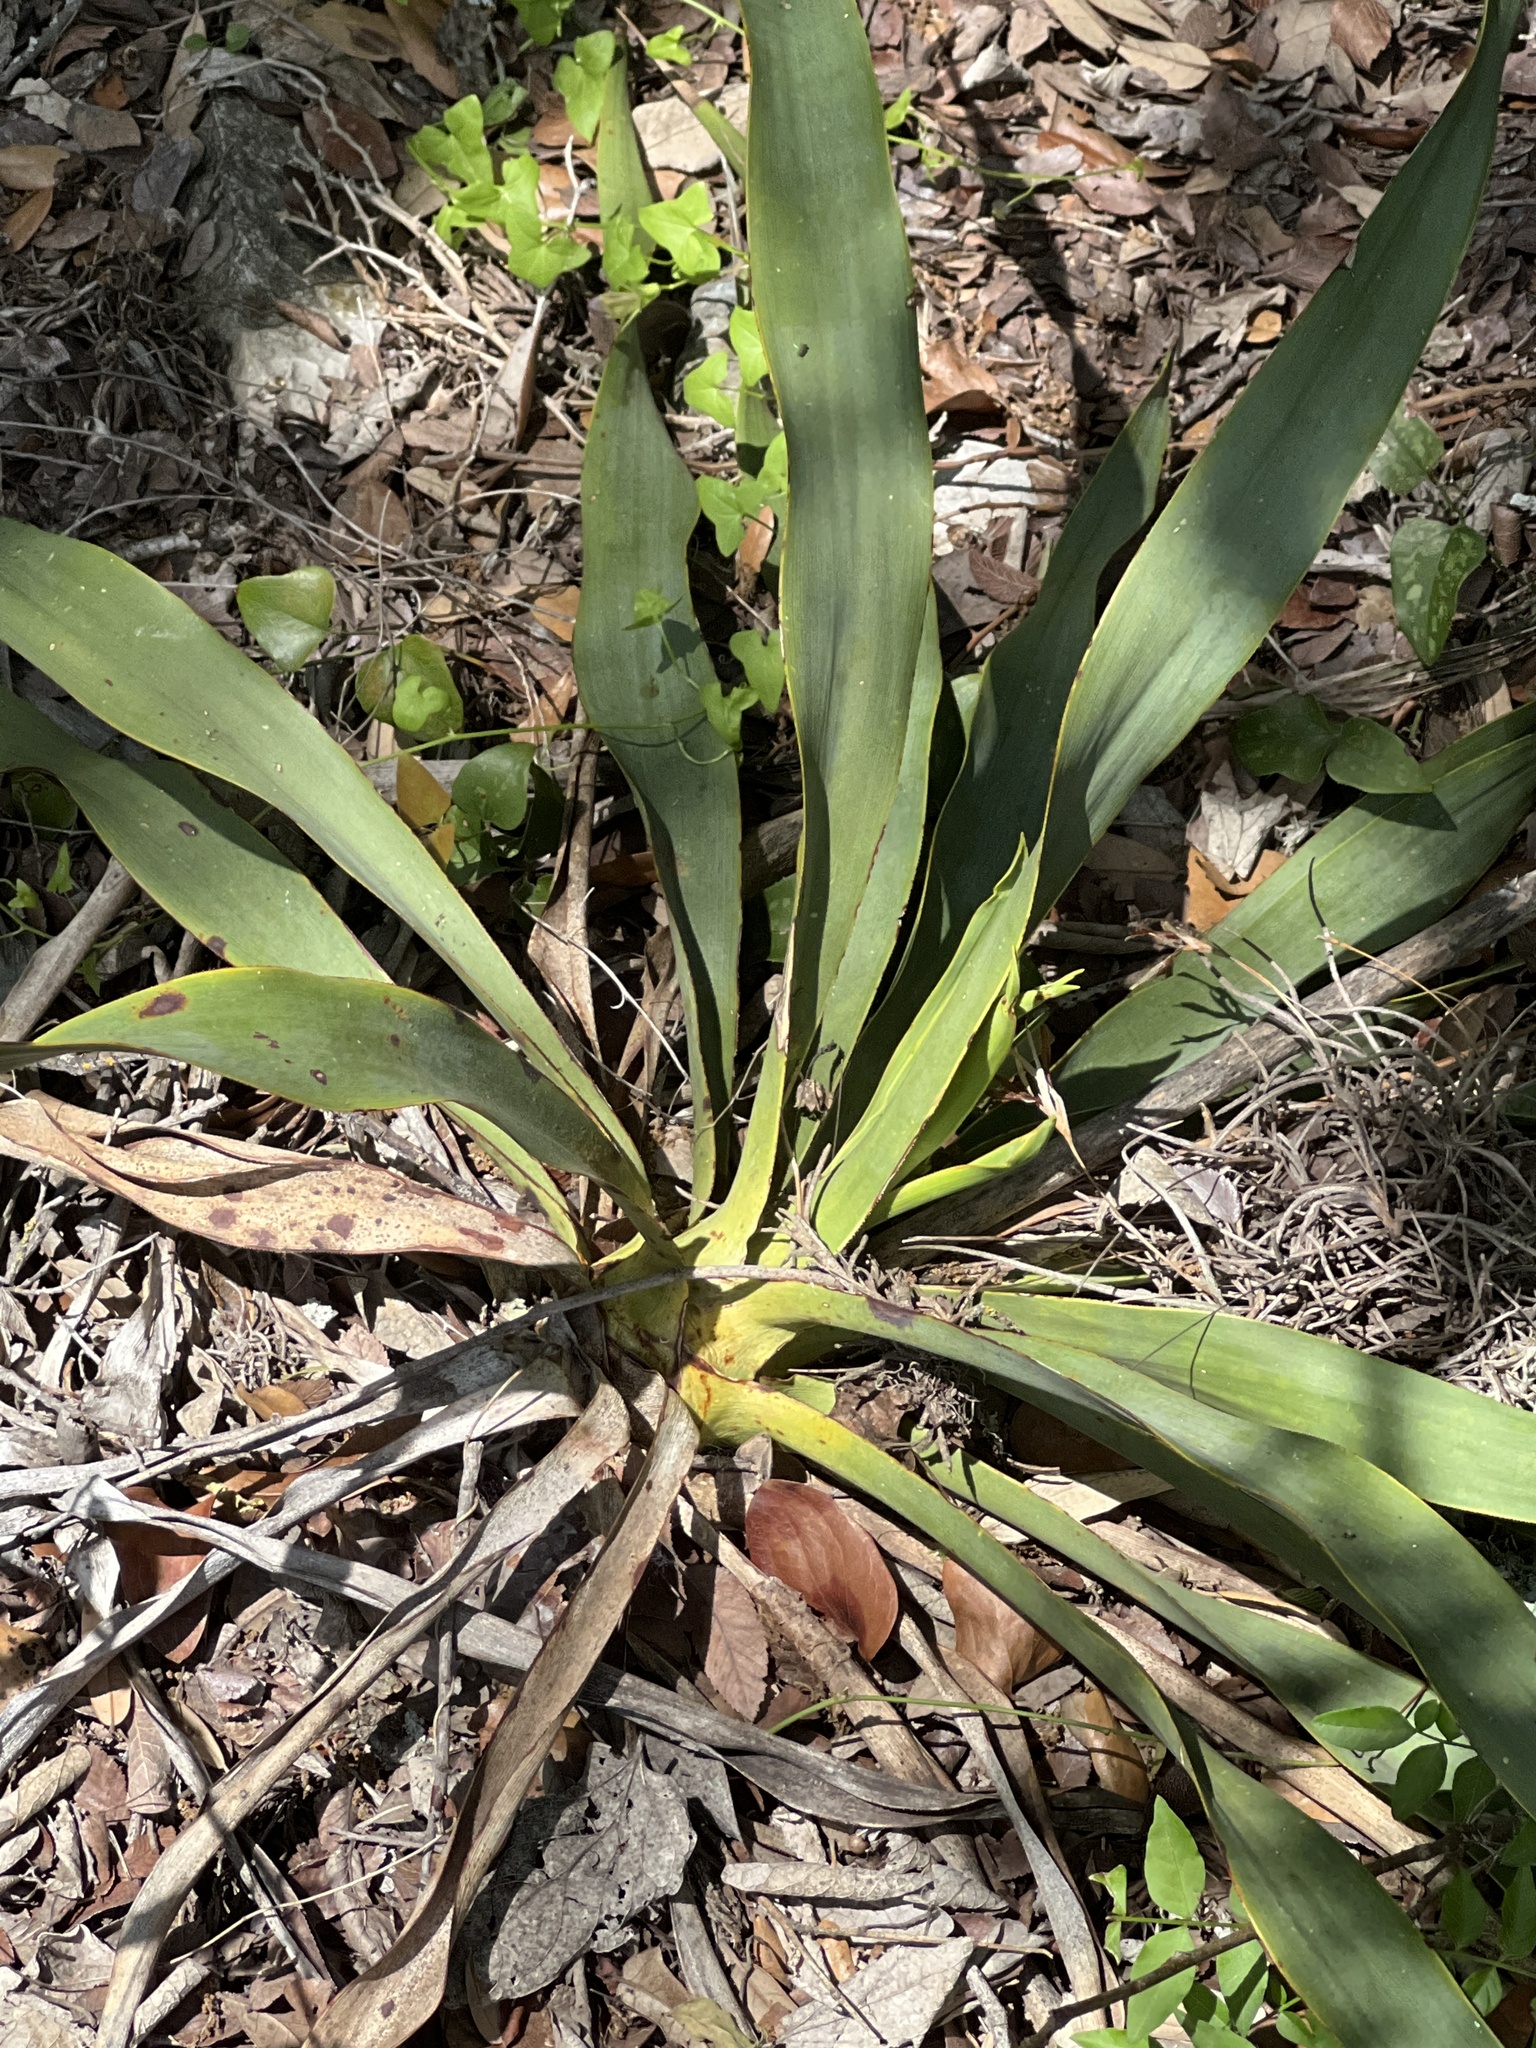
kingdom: Plantae
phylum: Tracheophyta
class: Liliopsida
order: Asparagales
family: Asparagaceae
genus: Yucca
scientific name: Yucca rupicola
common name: Twisted-leaf spanish-dagger
